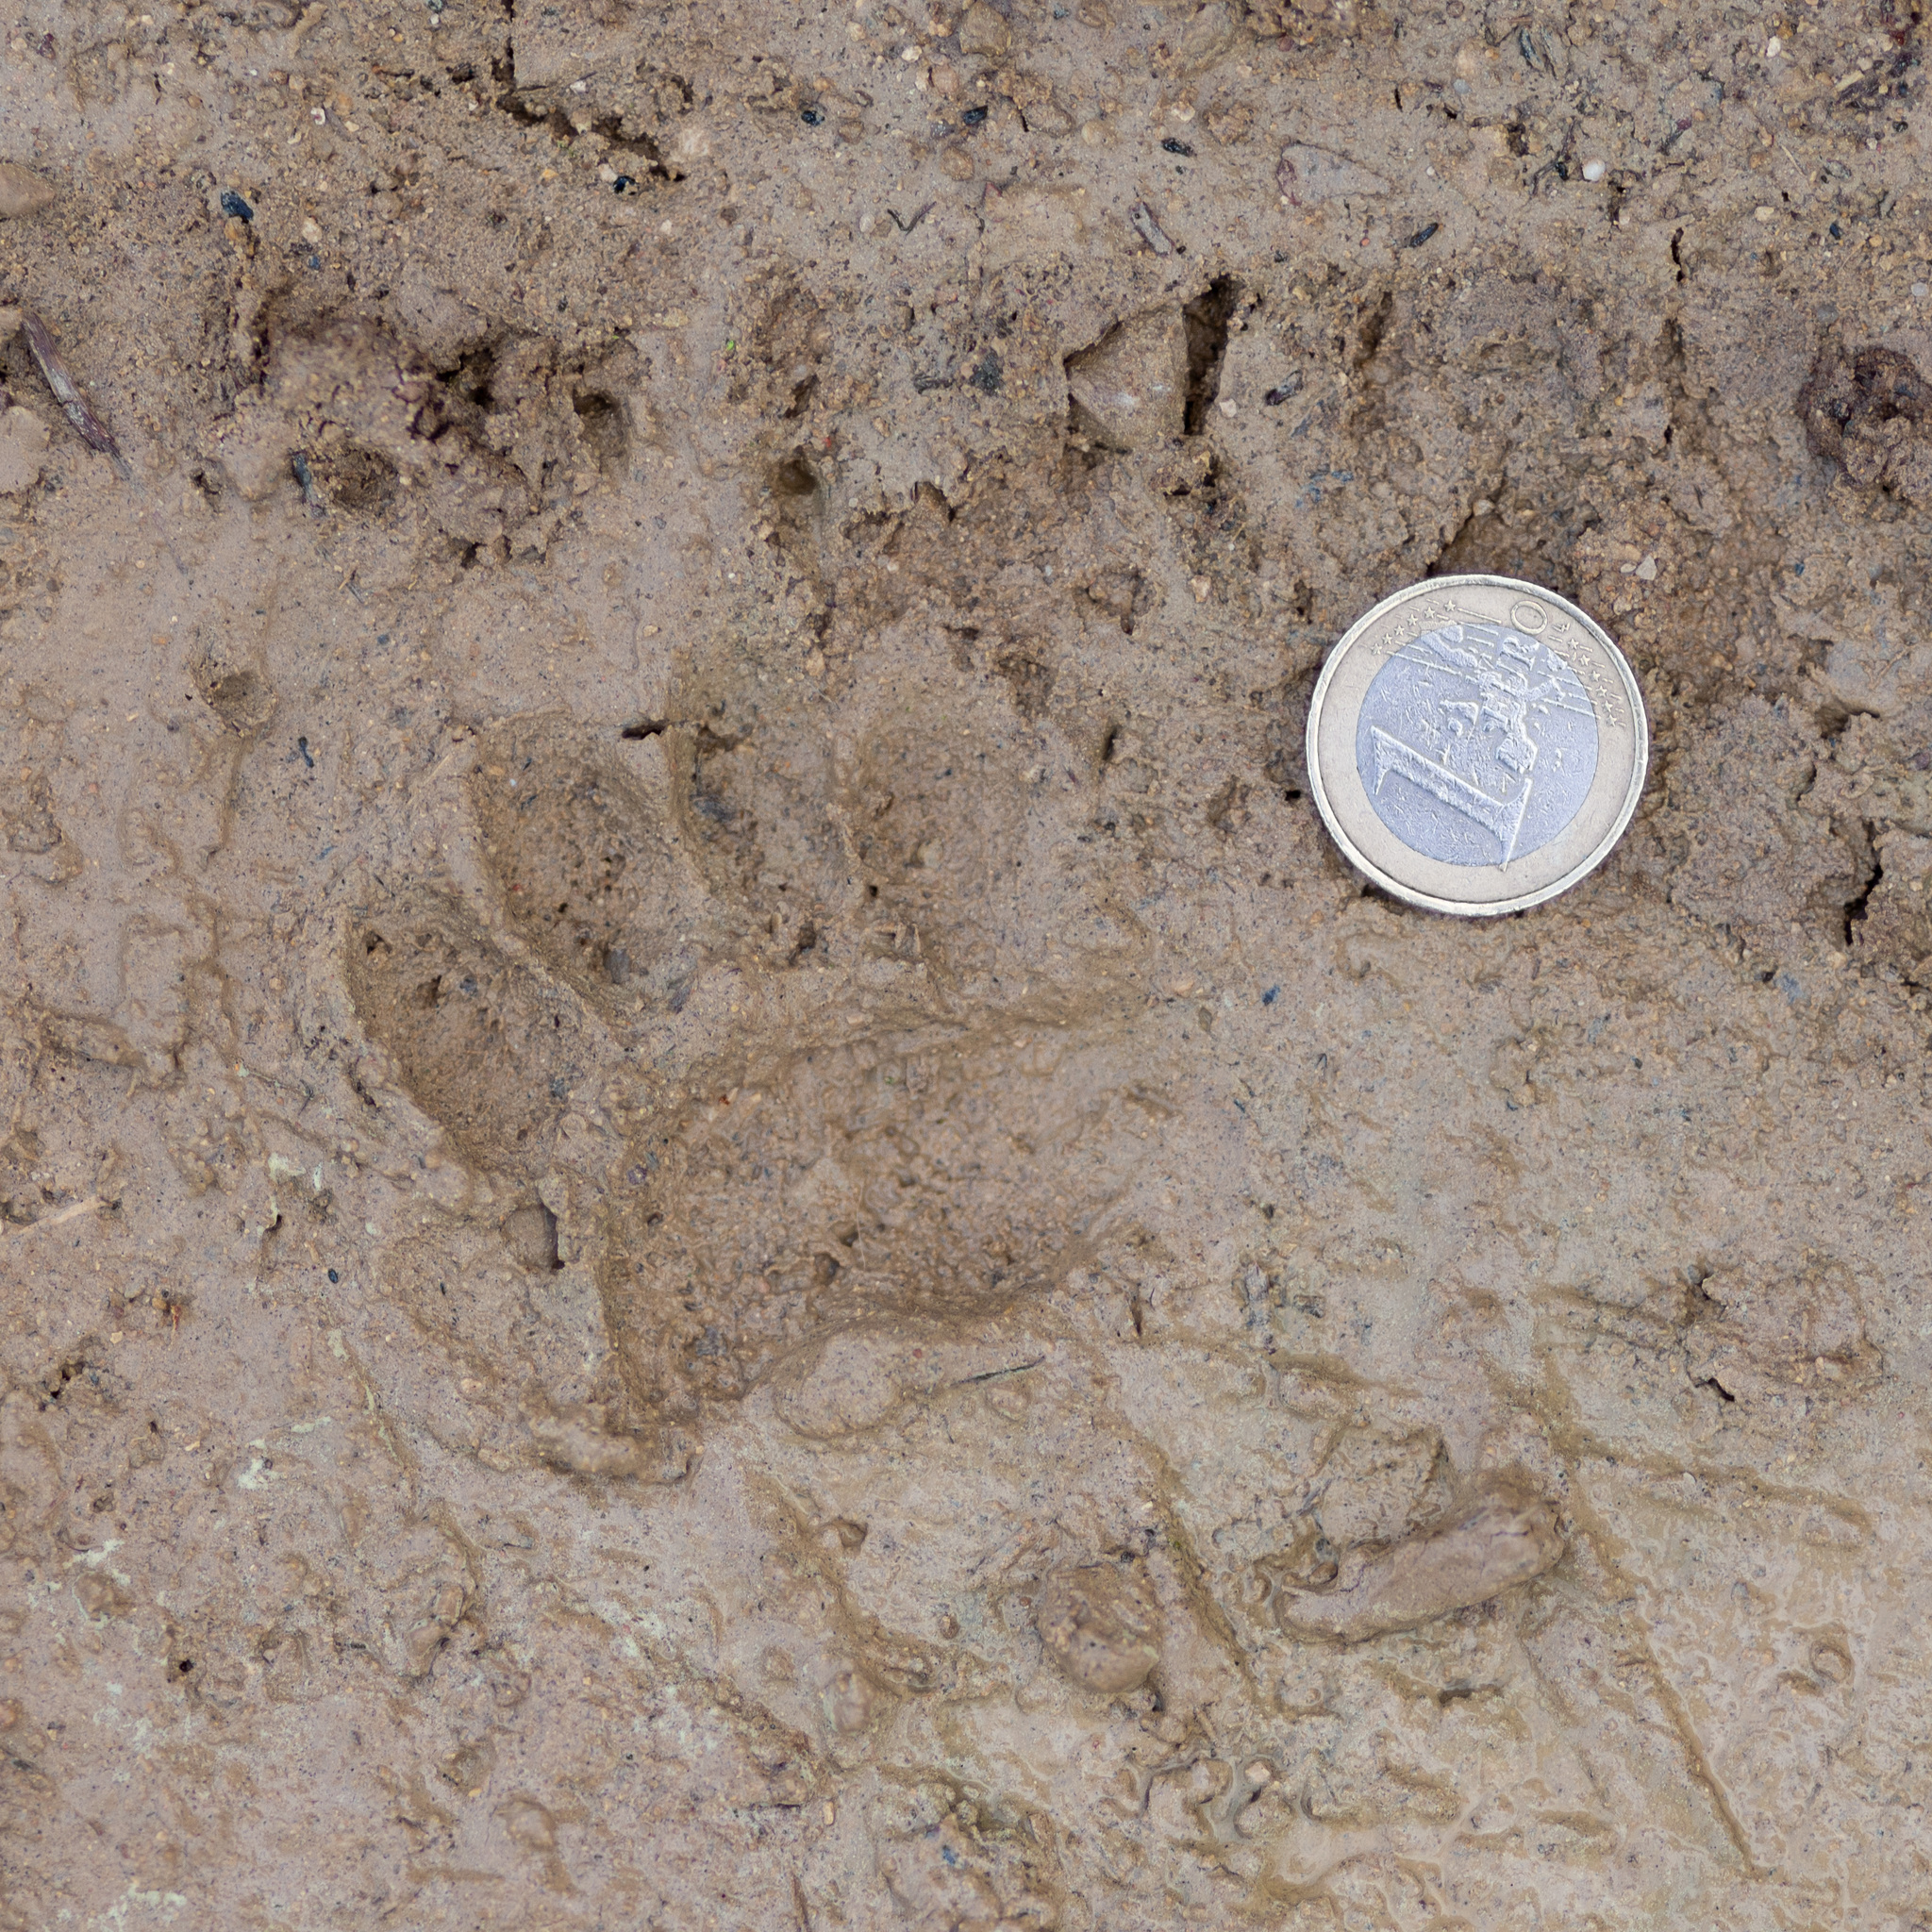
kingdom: Animalia
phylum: Chordata
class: Mammalia
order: Carnivora
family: Mustelidae
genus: Meles
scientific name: Meles meles
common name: Eurasian badger
